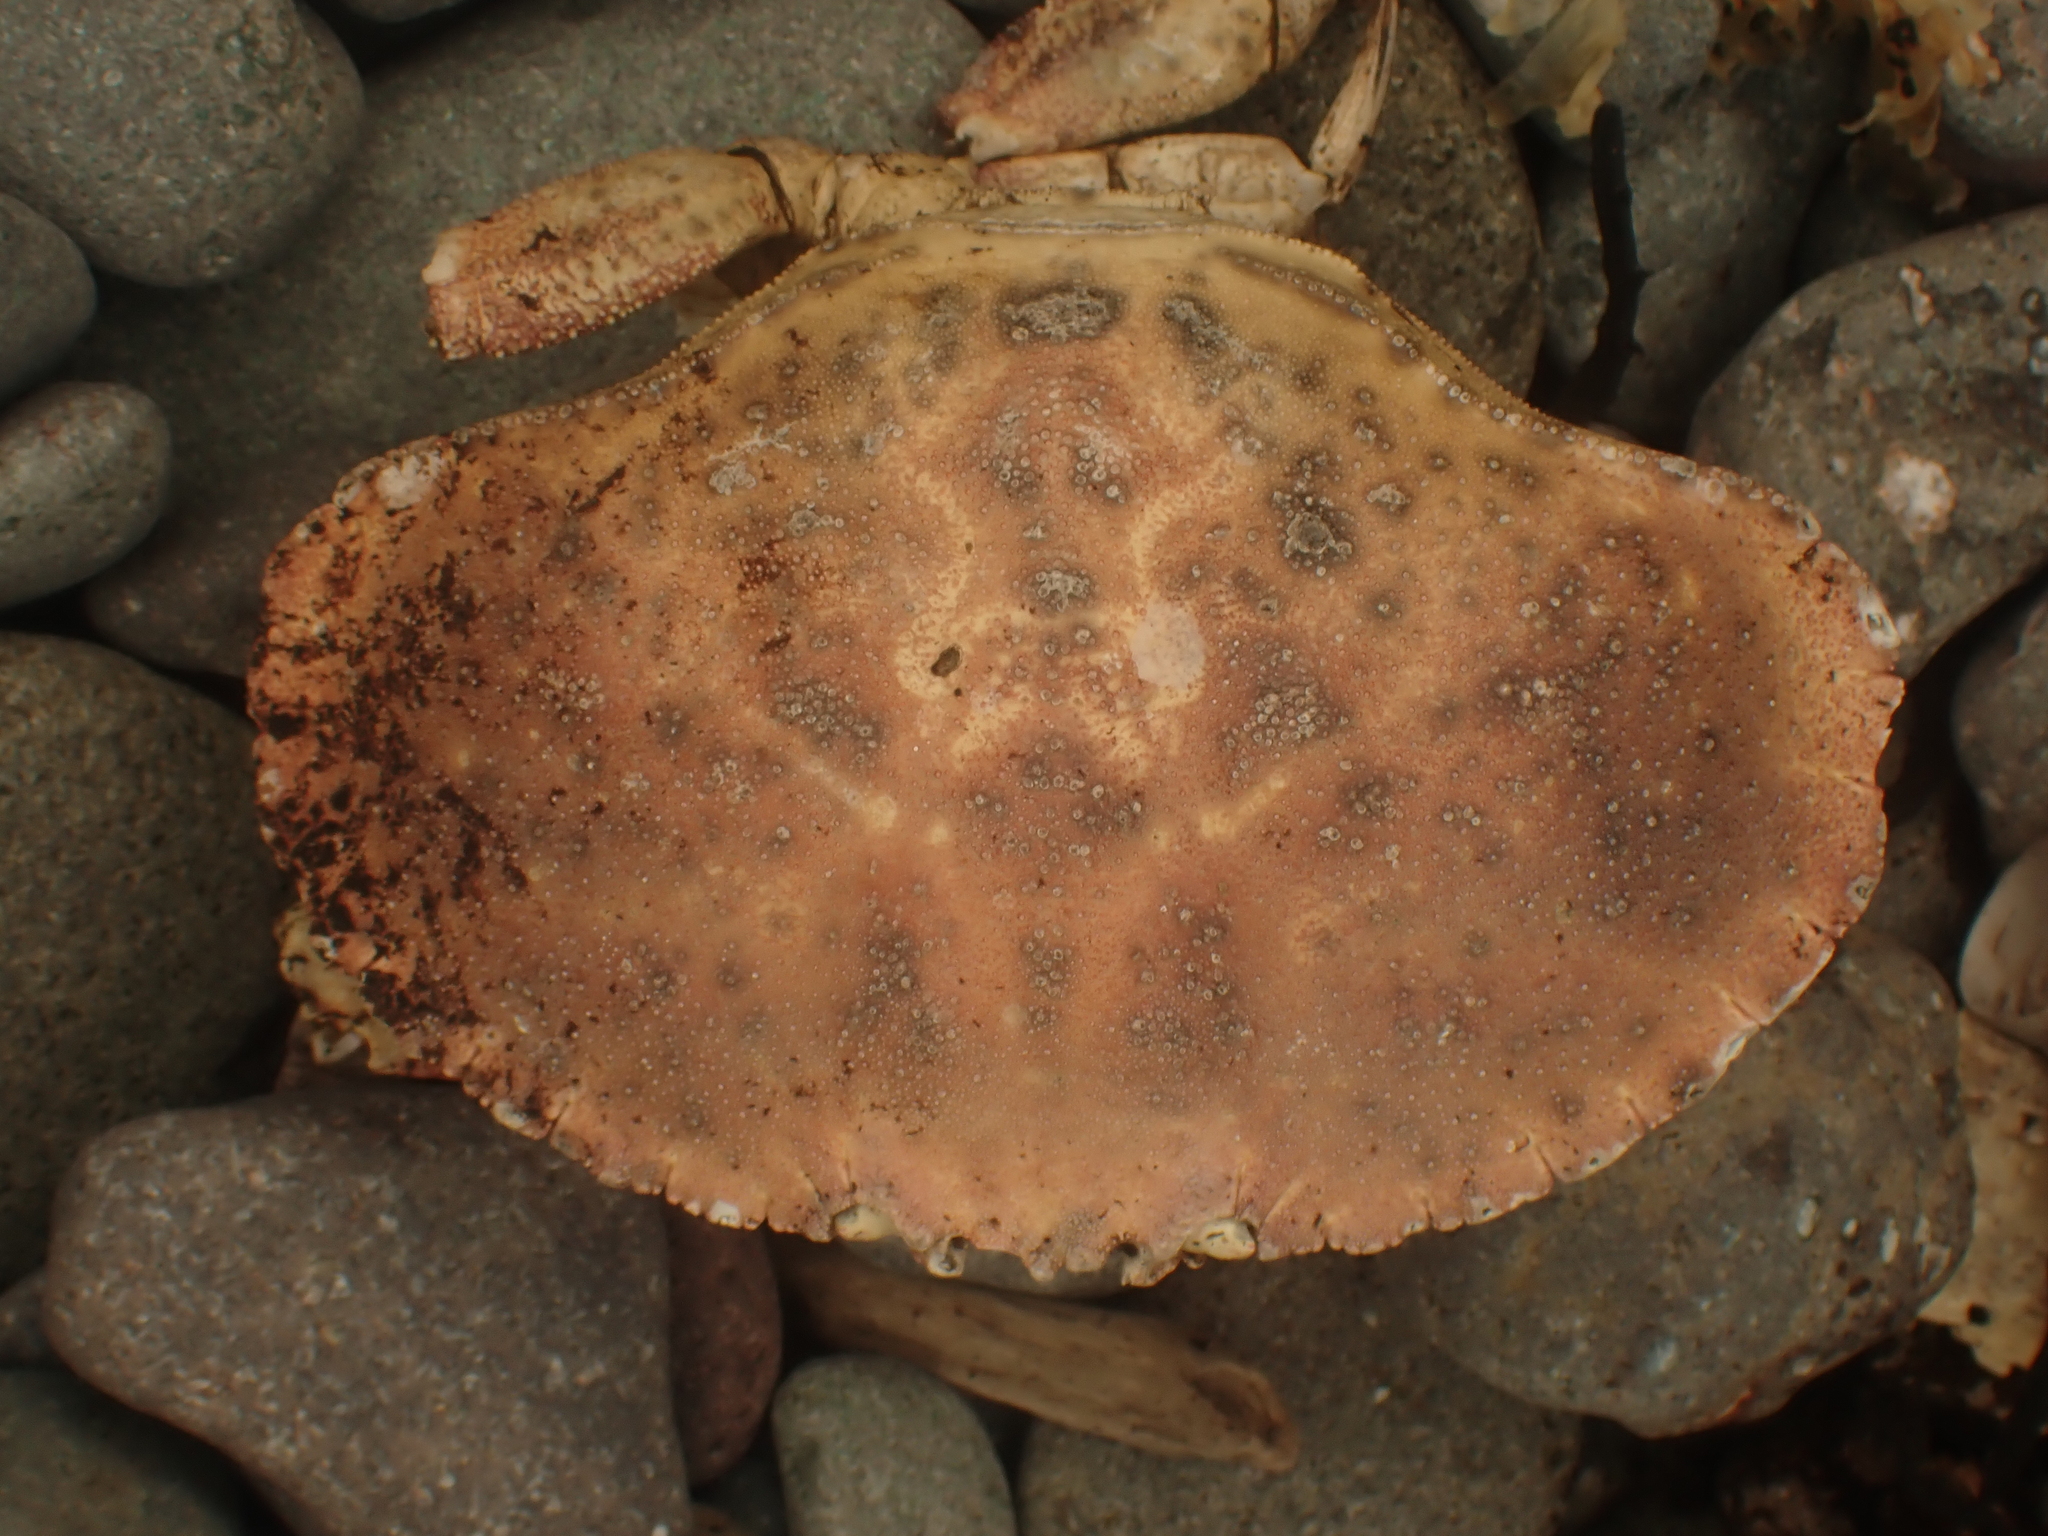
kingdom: Animalia
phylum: Arthropoda
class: Malacostraca
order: Decapoda
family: Cancridae
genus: Cancer
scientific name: Cancer borealis
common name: Jonah crab
